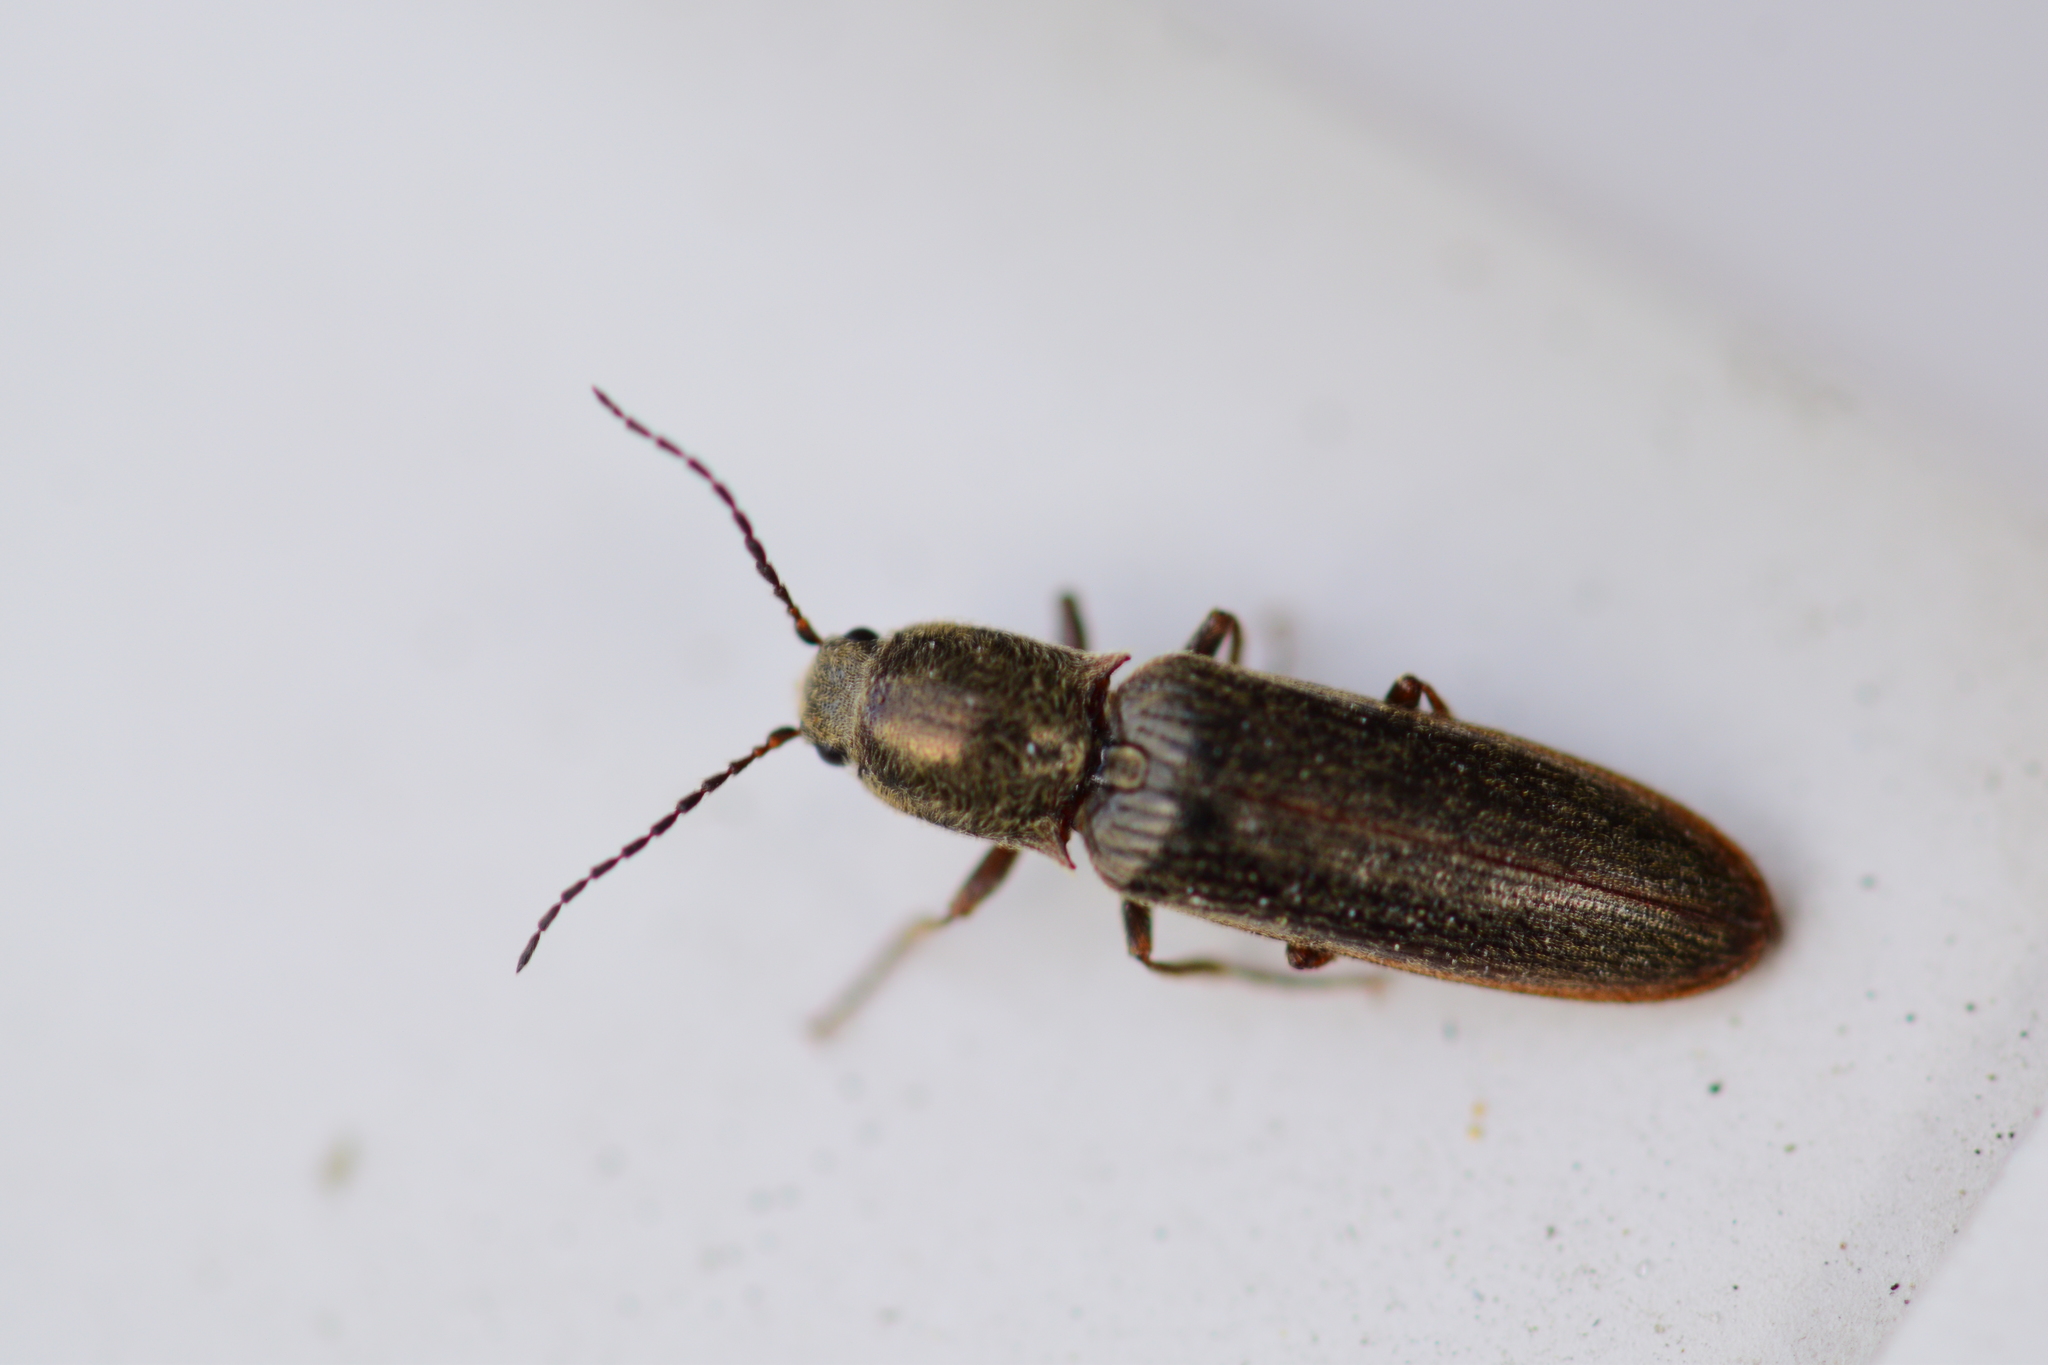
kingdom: Animalia
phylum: Arthropoda
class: Insecta
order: Coleoptera
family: Elateridae
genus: Sylvanelater
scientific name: Sylvanelater cylindriformis
